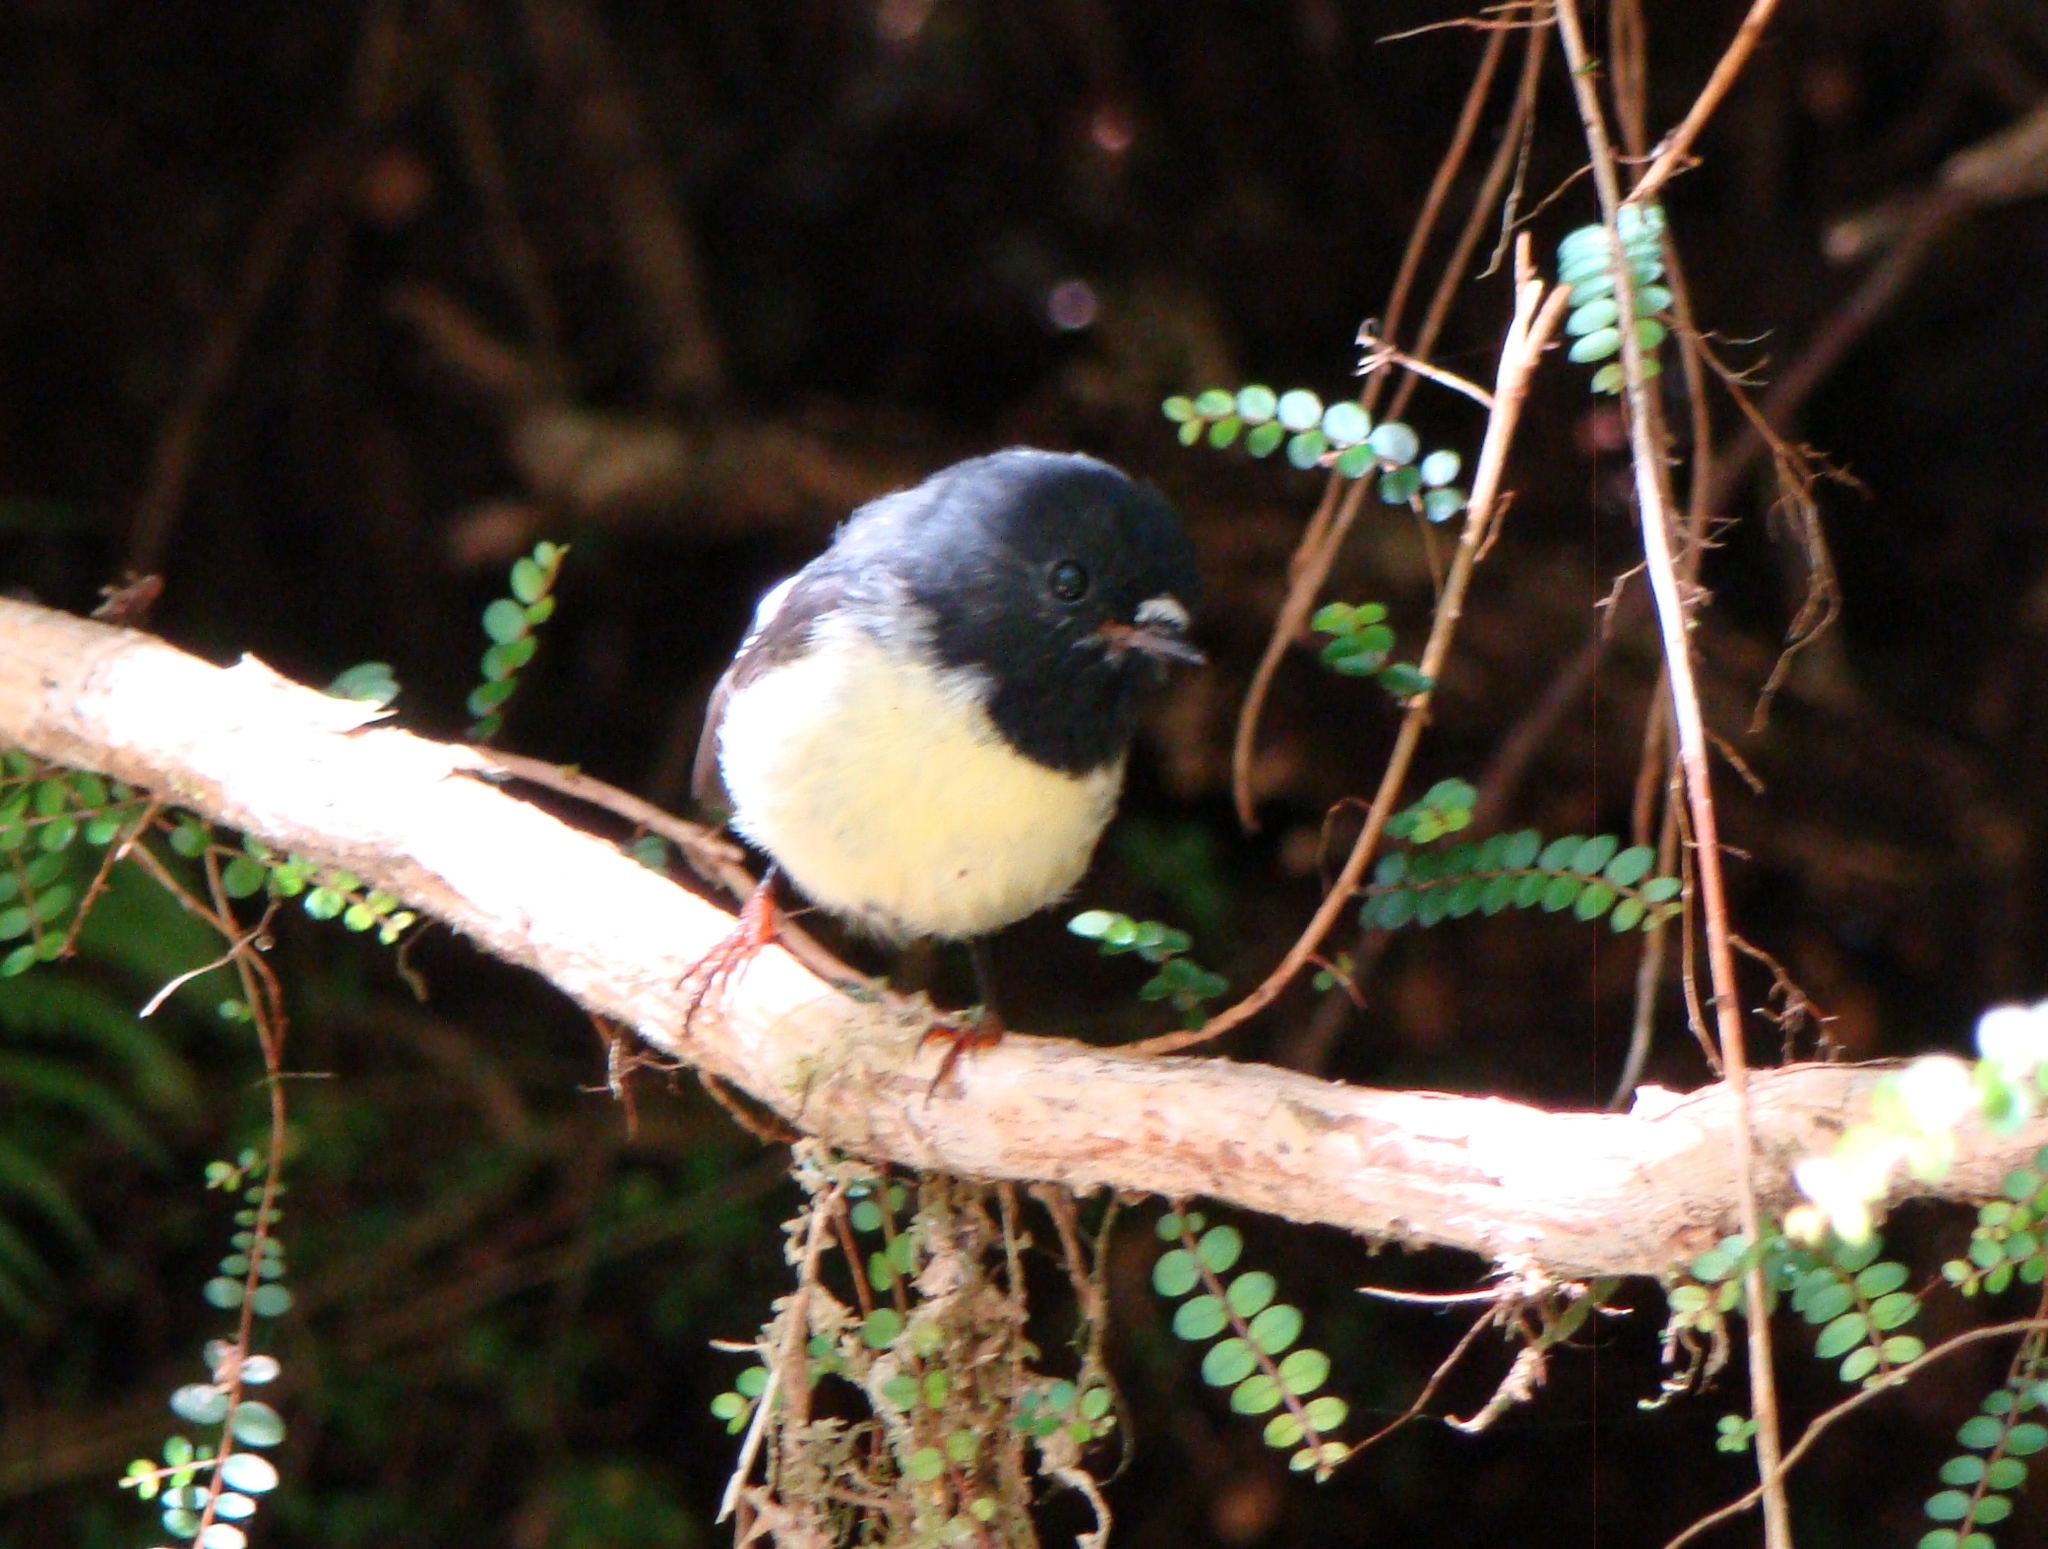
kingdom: Animalia
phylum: Chordata
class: Aves
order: Passeriformes
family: Petroicidae
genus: Petroica
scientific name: Petroica macrocephala
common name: Tomtit
